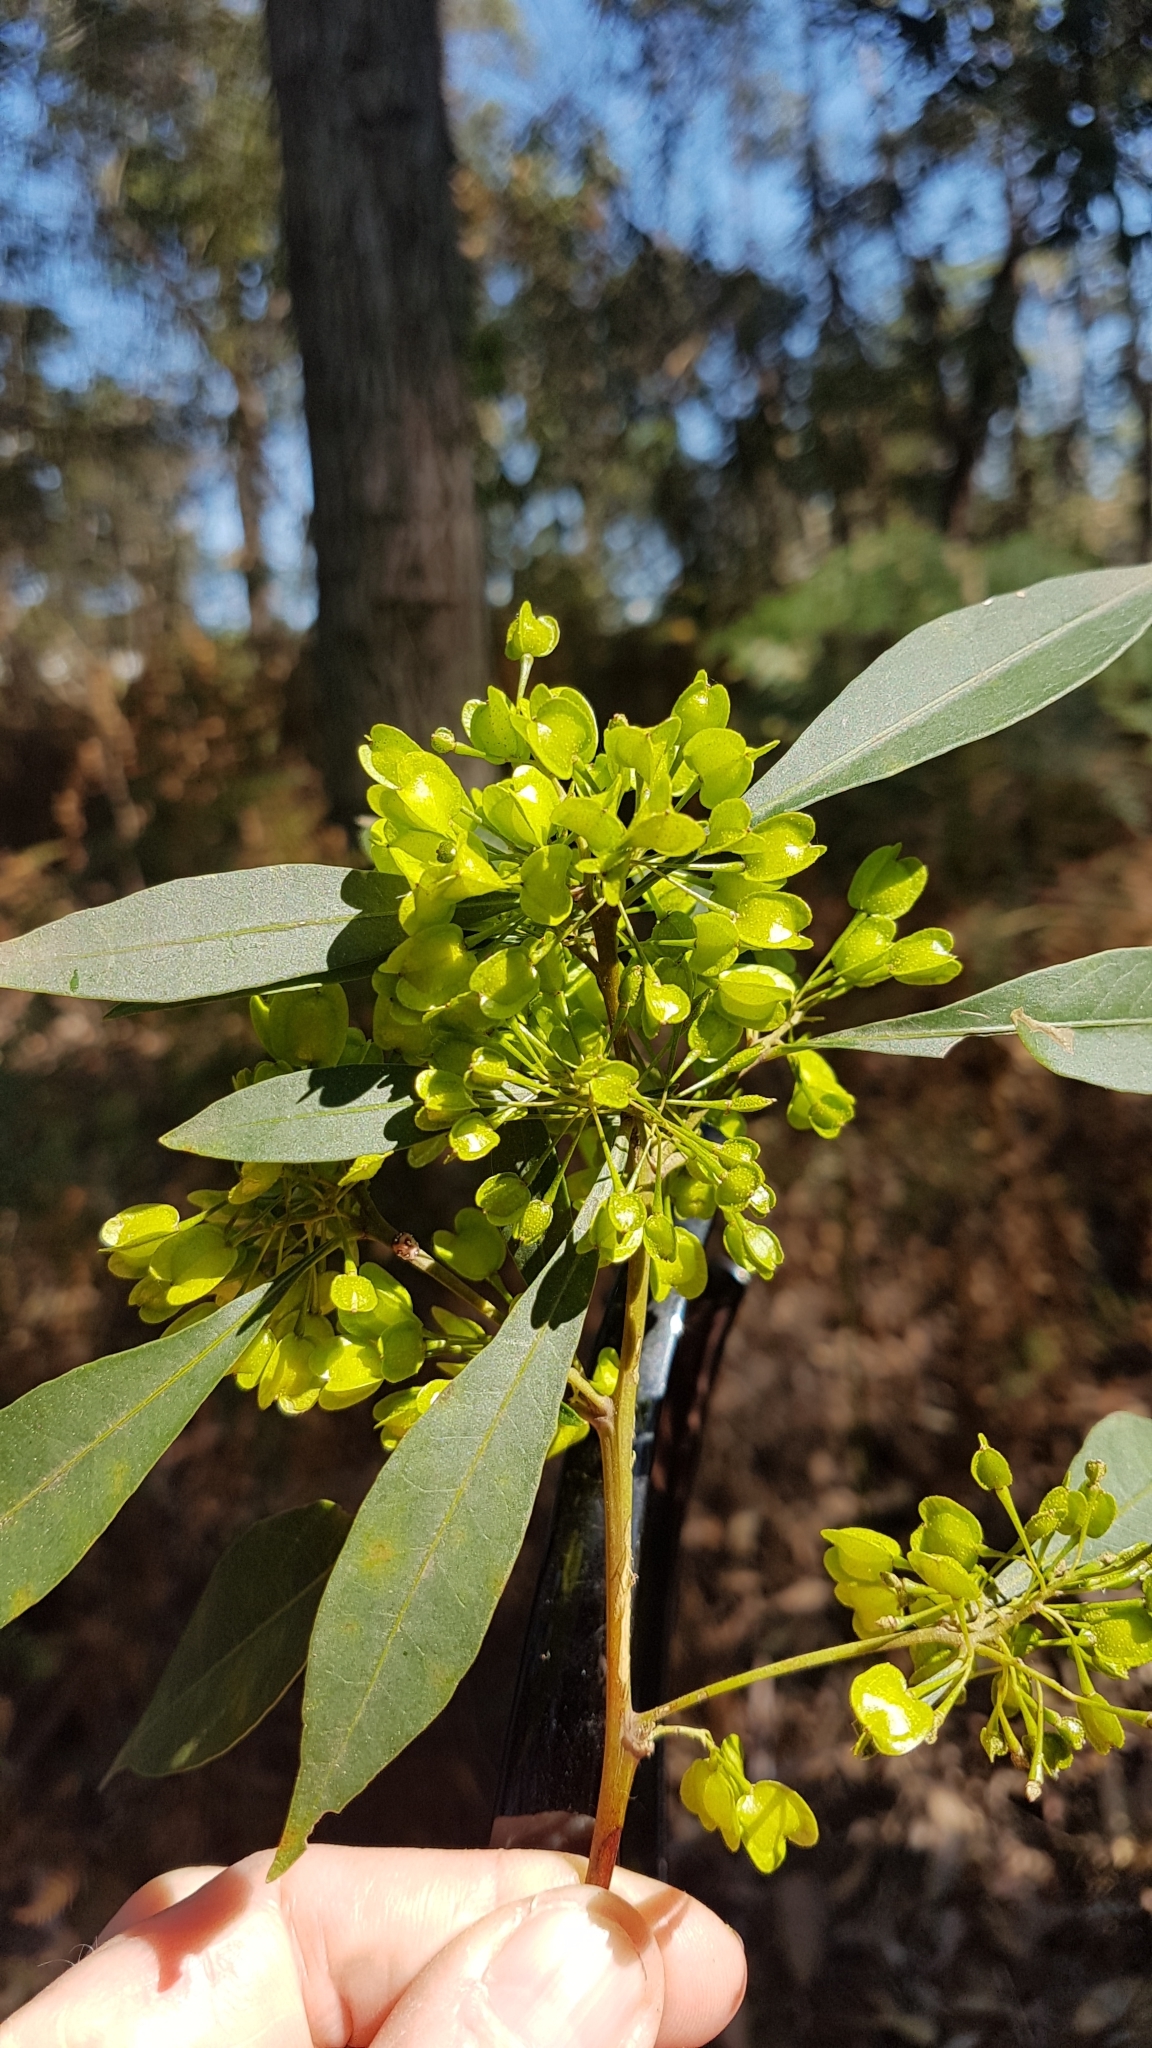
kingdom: Plantae
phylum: Tracheophyta
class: Magnoliopsida
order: Sapindales
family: Sapindaceae
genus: Dodonaea
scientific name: Dodonaea triquetra
